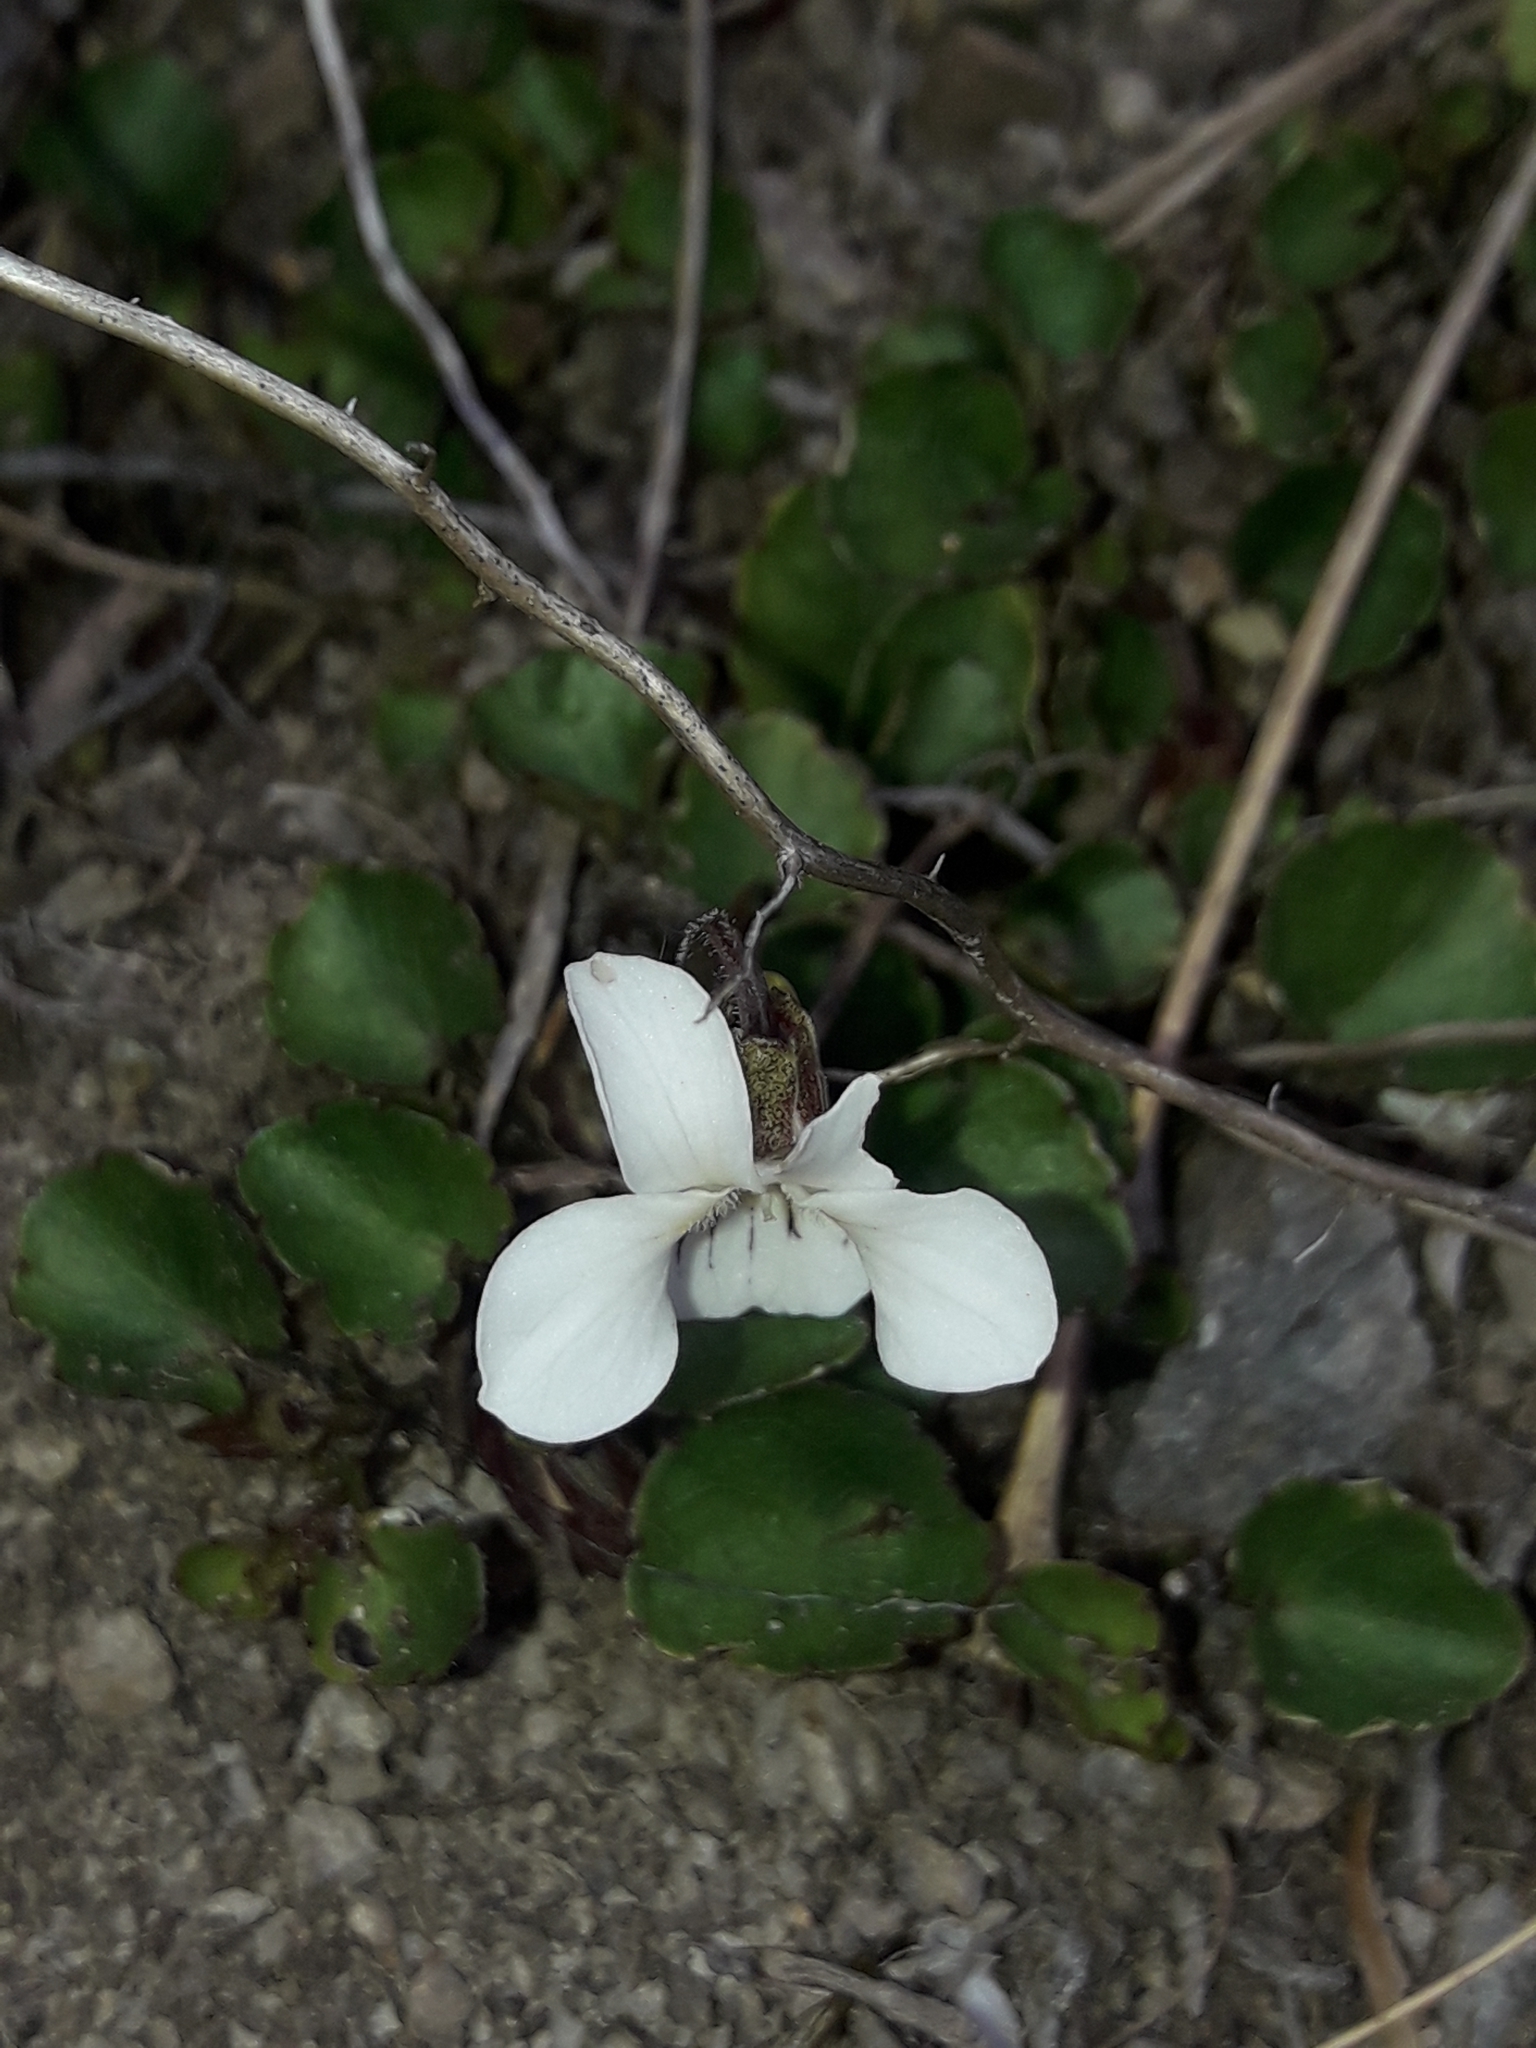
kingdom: Plantae
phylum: Tracheophyta
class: Magnoliopsida
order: Malpighiales
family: Violaceae
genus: Viola
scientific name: Viola cunninghamii
